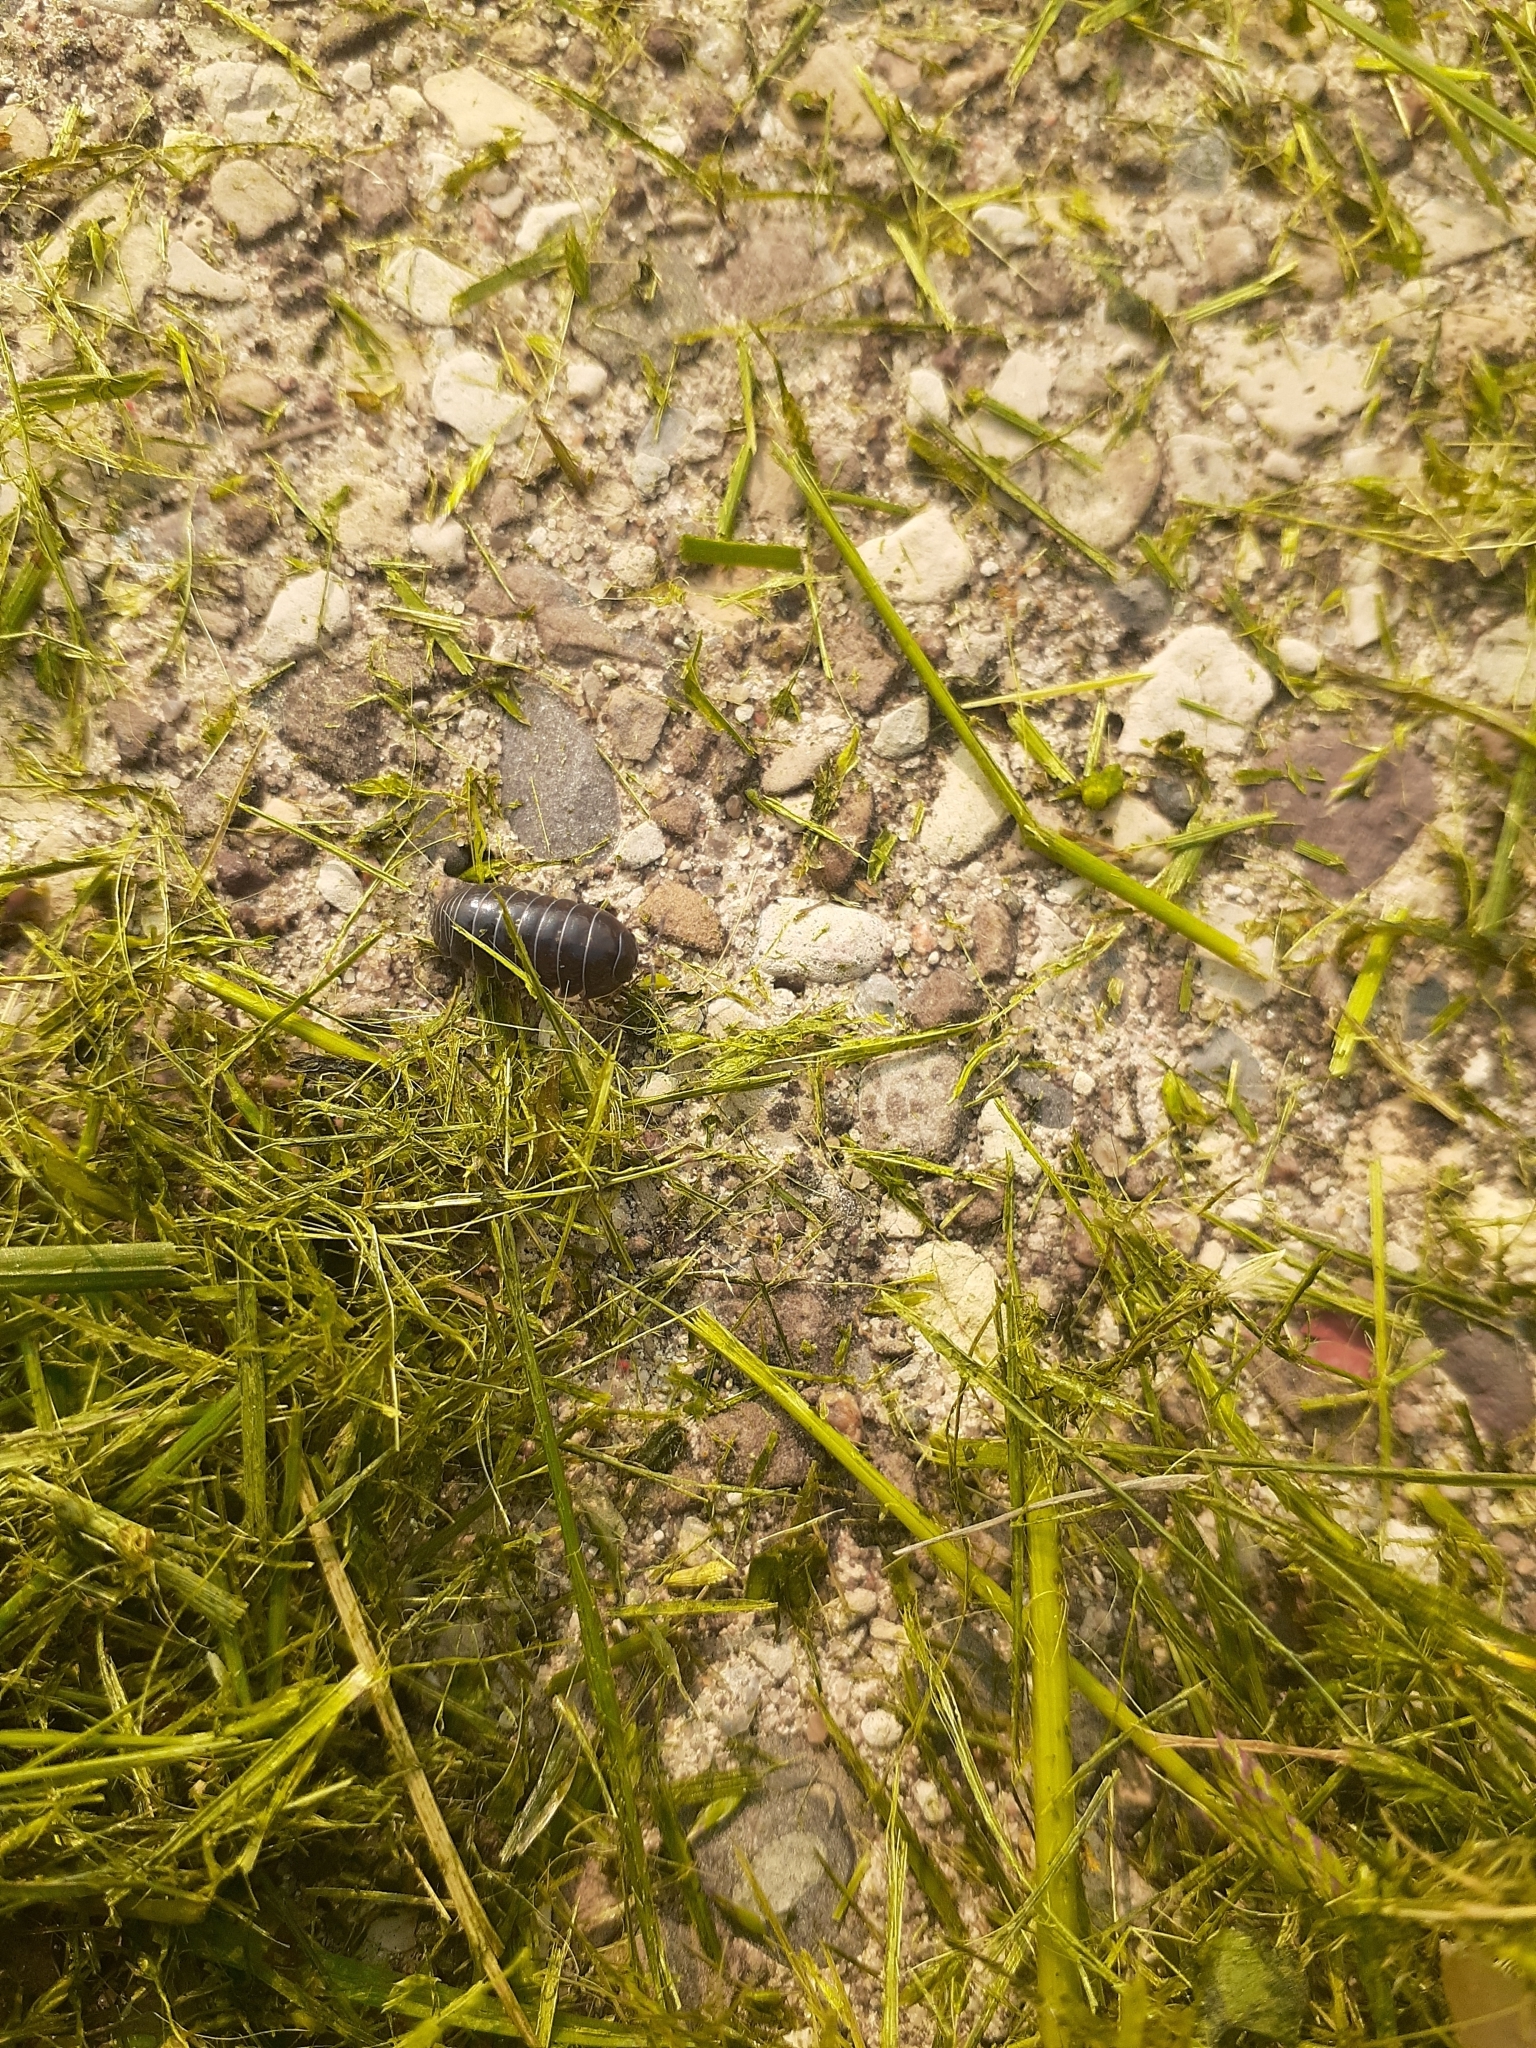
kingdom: Animalia
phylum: Arthropoda
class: Malacostraca
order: Isopoda
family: Armadillidiidae
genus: Armadillidium
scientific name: Armadillidium vulgare
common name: Common pill woodlouse
